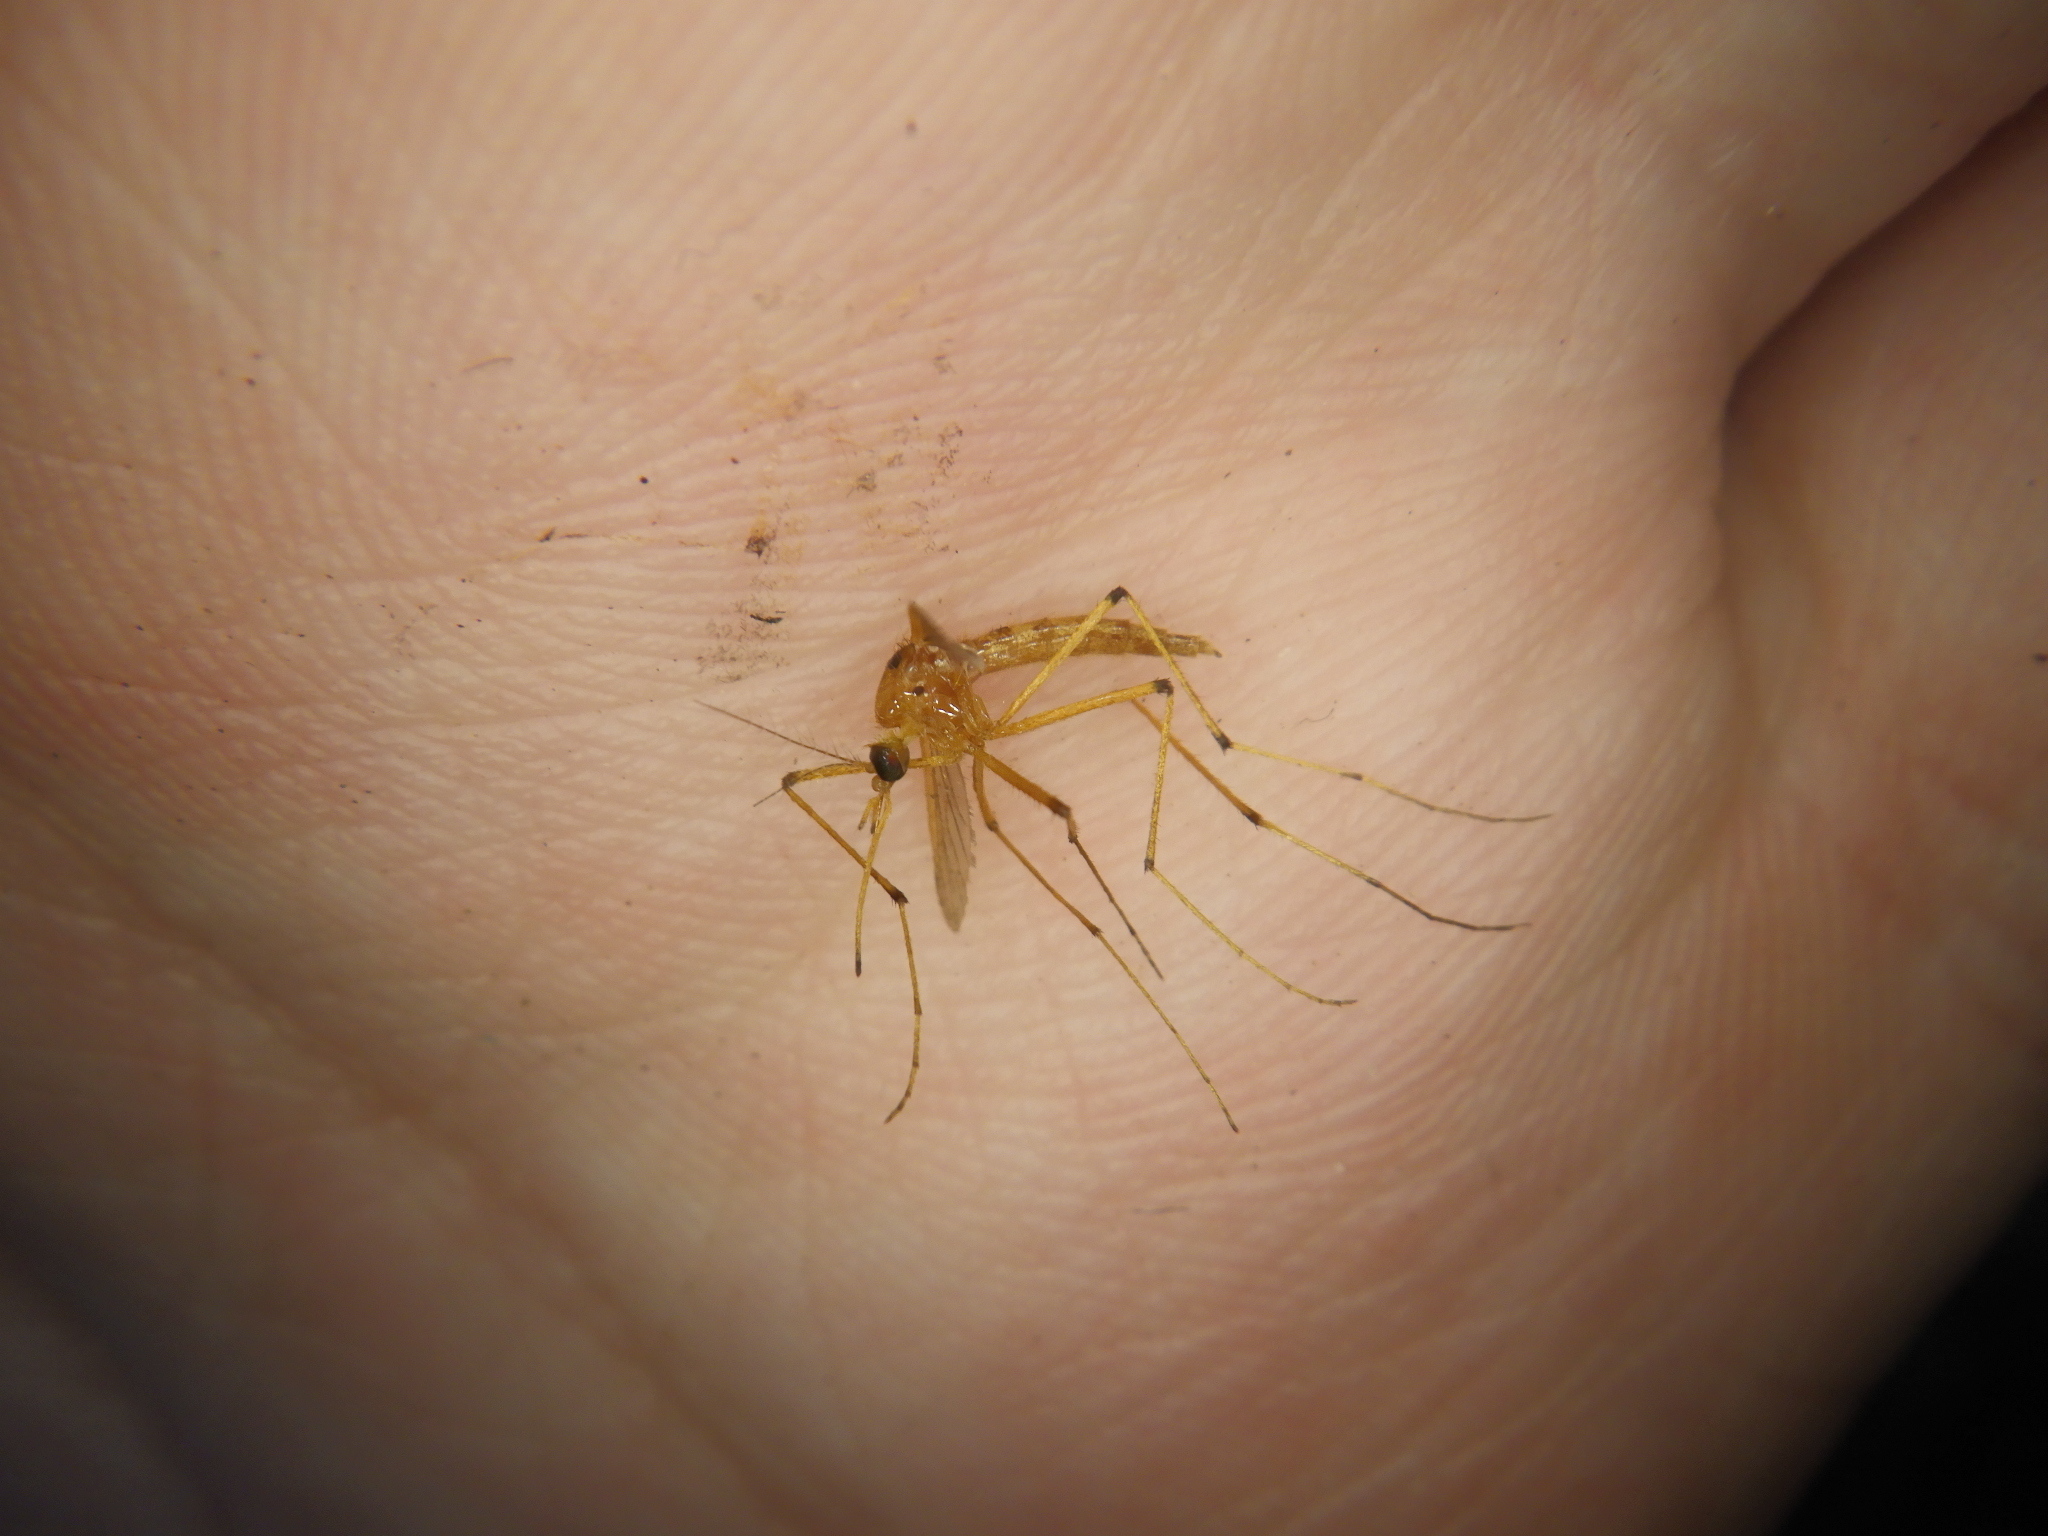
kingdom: Animalia
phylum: Arthropoda
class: Insecta
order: Diptera
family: Culicidae
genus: Aedes
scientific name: Aedes fulvus
